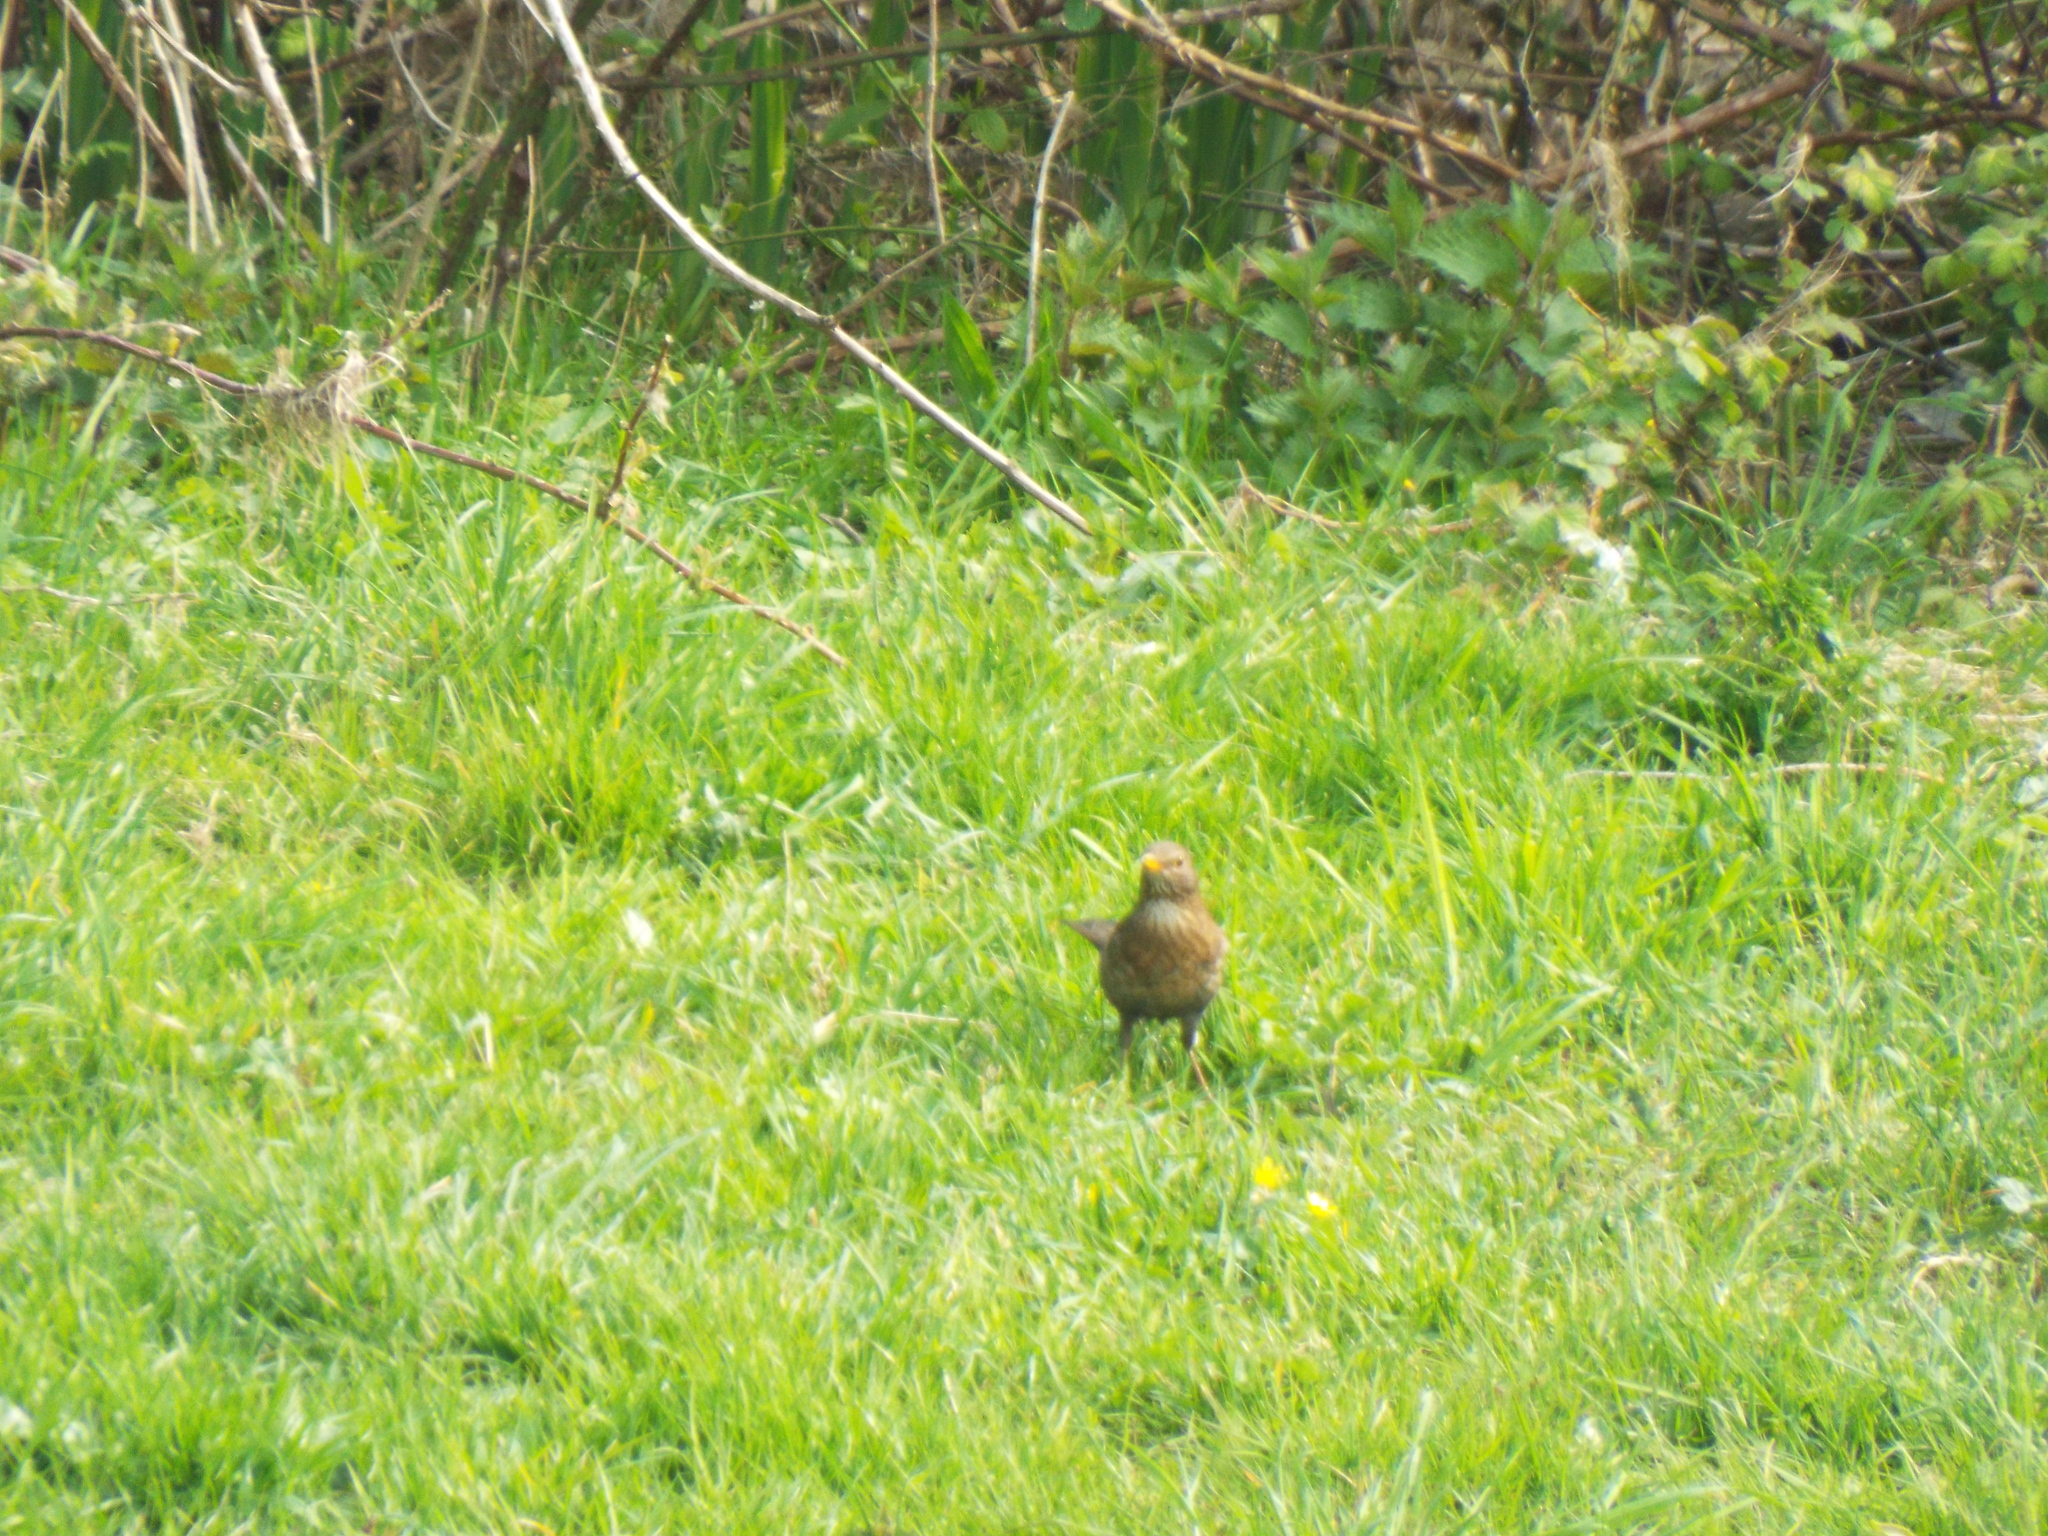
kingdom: Animalia
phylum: Chordata
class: Aves
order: Passeriformes
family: Turdidae
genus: Turdus
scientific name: Turdus merula
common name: Common blackbird
